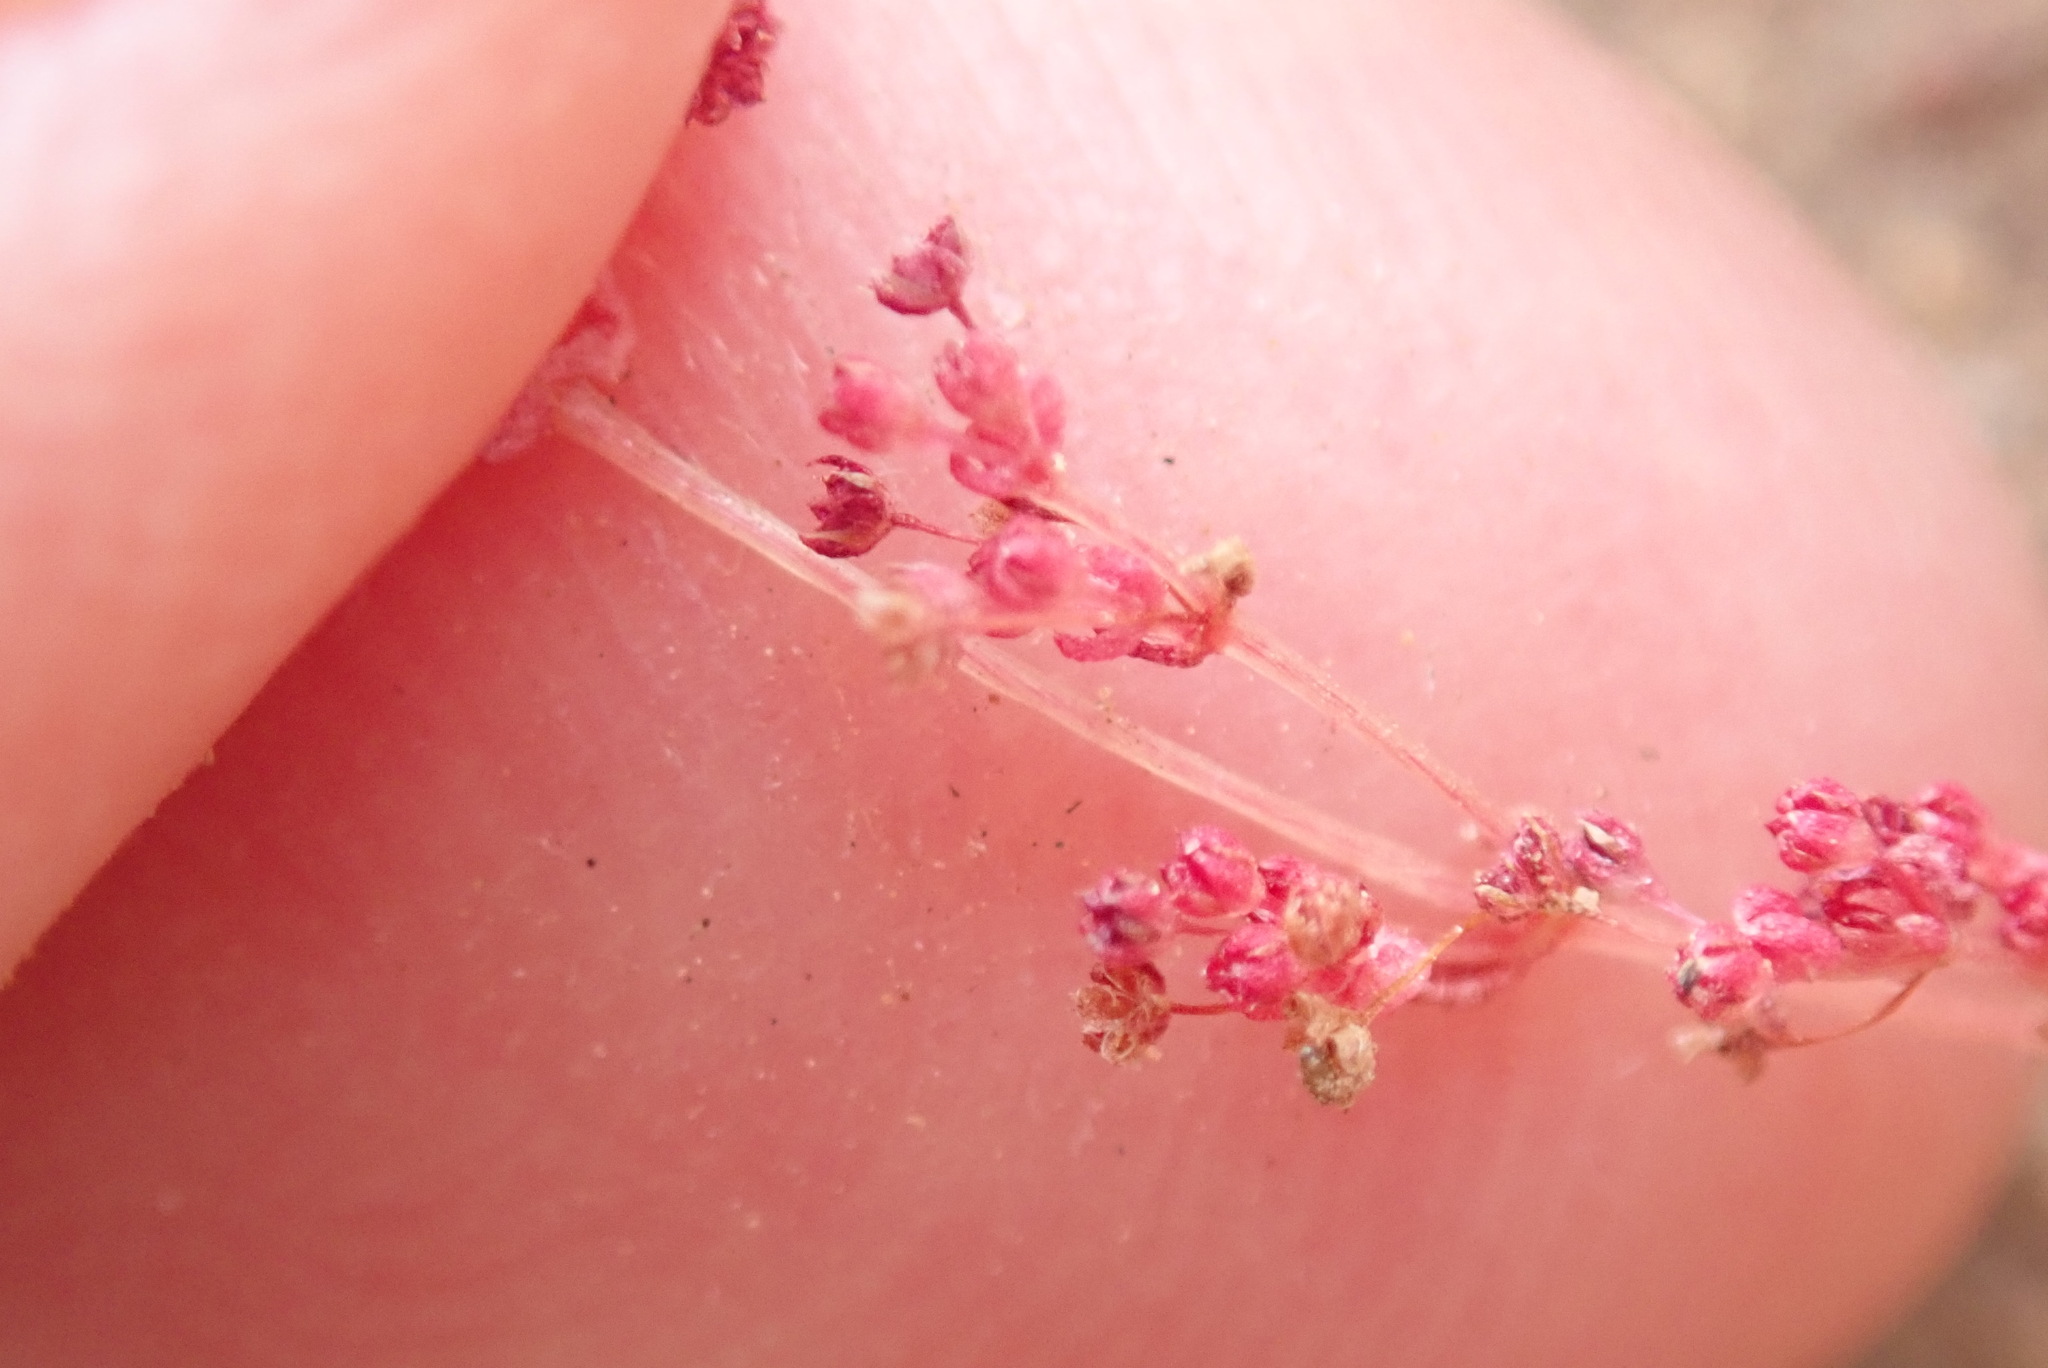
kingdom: Plantae
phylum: Tracheophyta
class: Magnoliopsida
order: Saxifragales
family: Crassulaceae
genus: Crassula
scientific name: Crassula connata
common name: Erect pygmyweed
